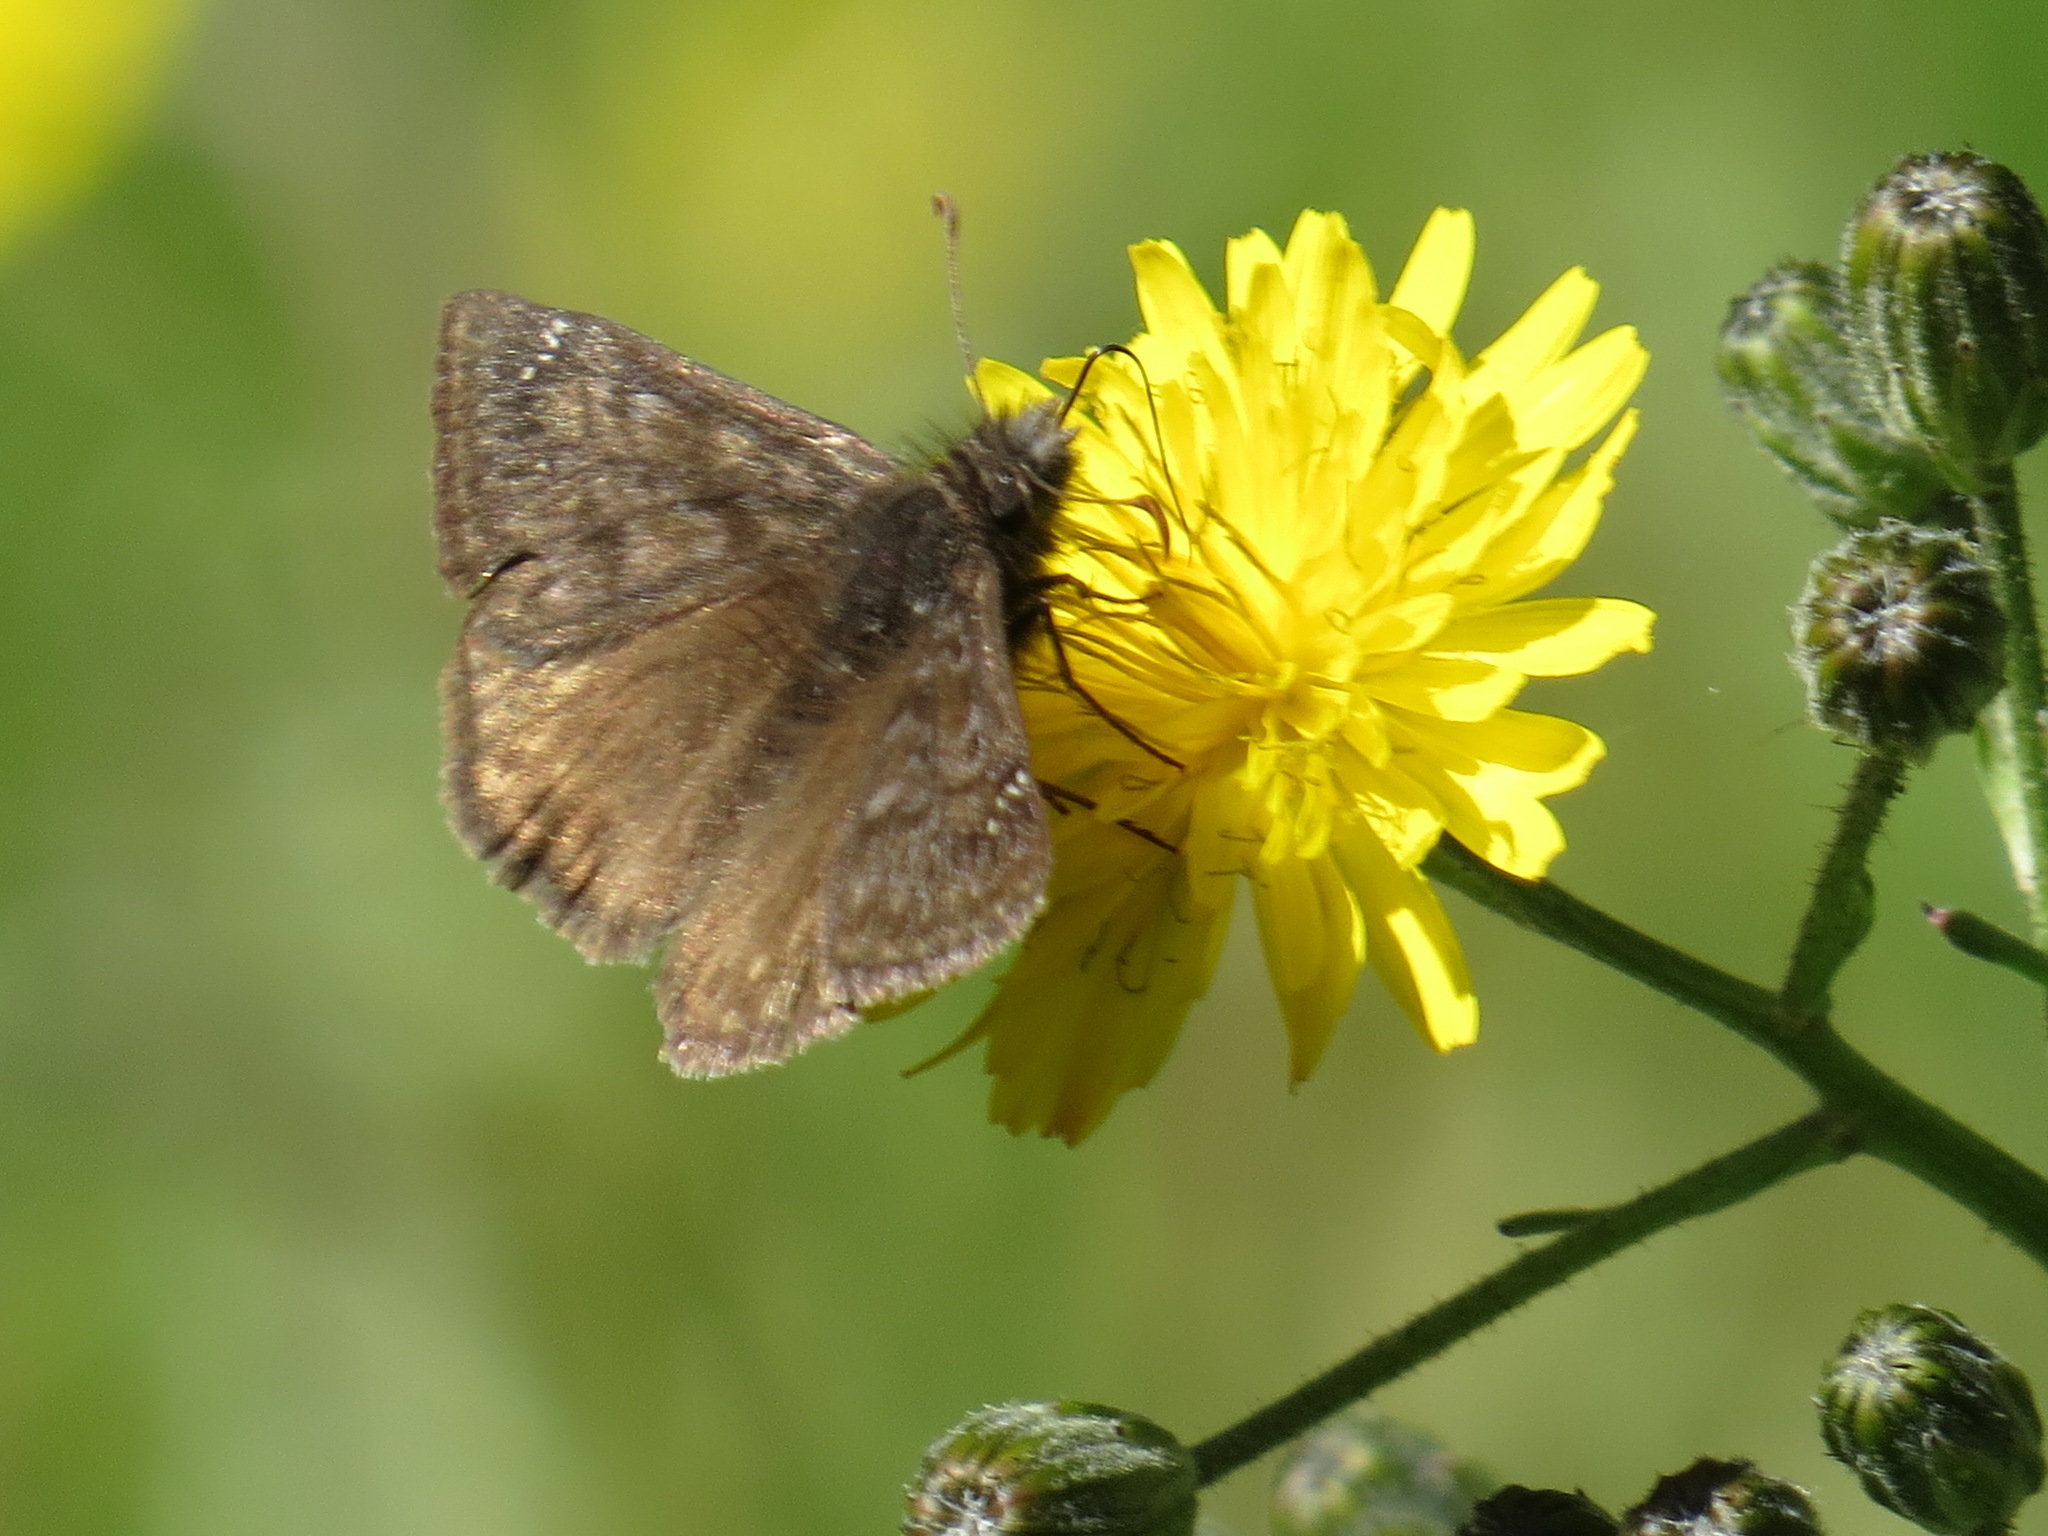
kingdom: Animalia
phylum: Arthropoda
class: Insecta
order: Lepidoptera
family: Hesperiidae
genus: Erynnis
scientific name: Erynnis propertius
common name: Propertius duskywing
